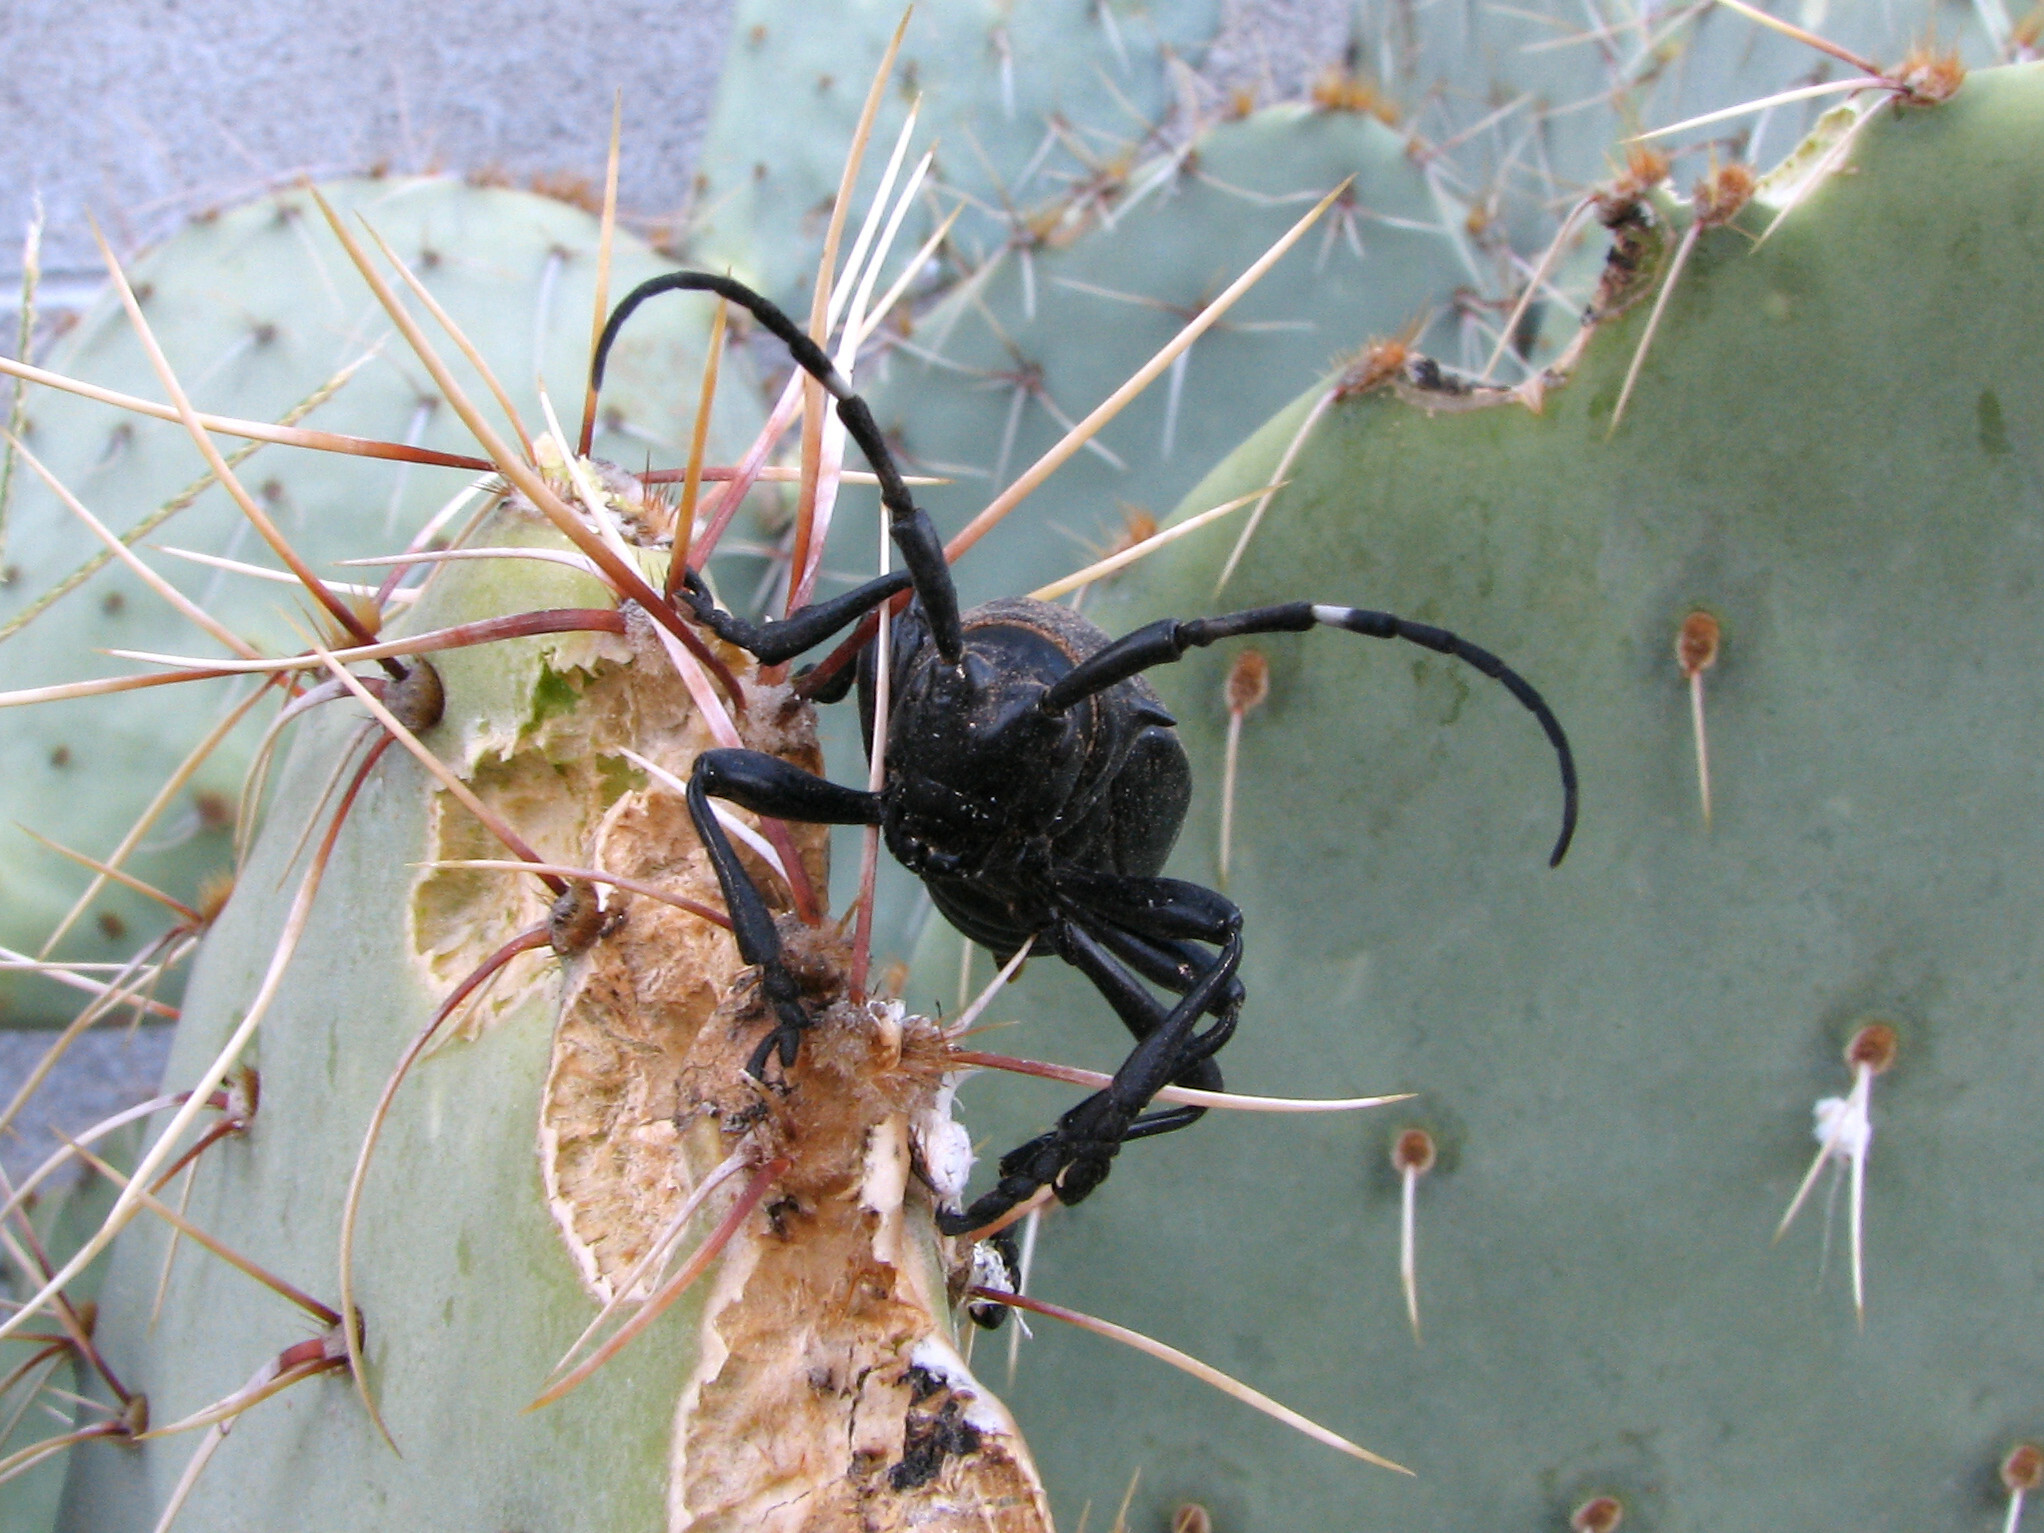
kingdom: Animalia
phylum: Arthropoda
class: Insecta
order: Coleoptera
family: Cerambycidae
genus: Moneilema
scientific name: Moneilema gigas
